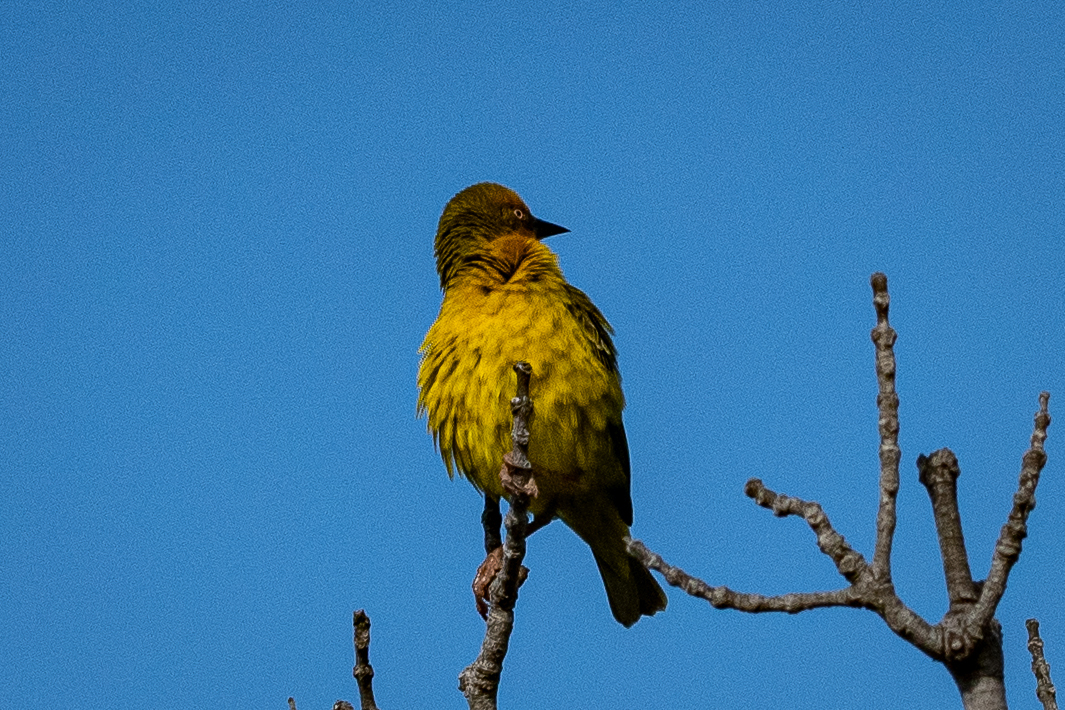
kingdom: Animalia
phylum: Chordata
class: Aves
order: Passeriformes
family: Ploceidae
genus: Ploceus
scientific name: Ploceus capensis
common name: Cape weaver
